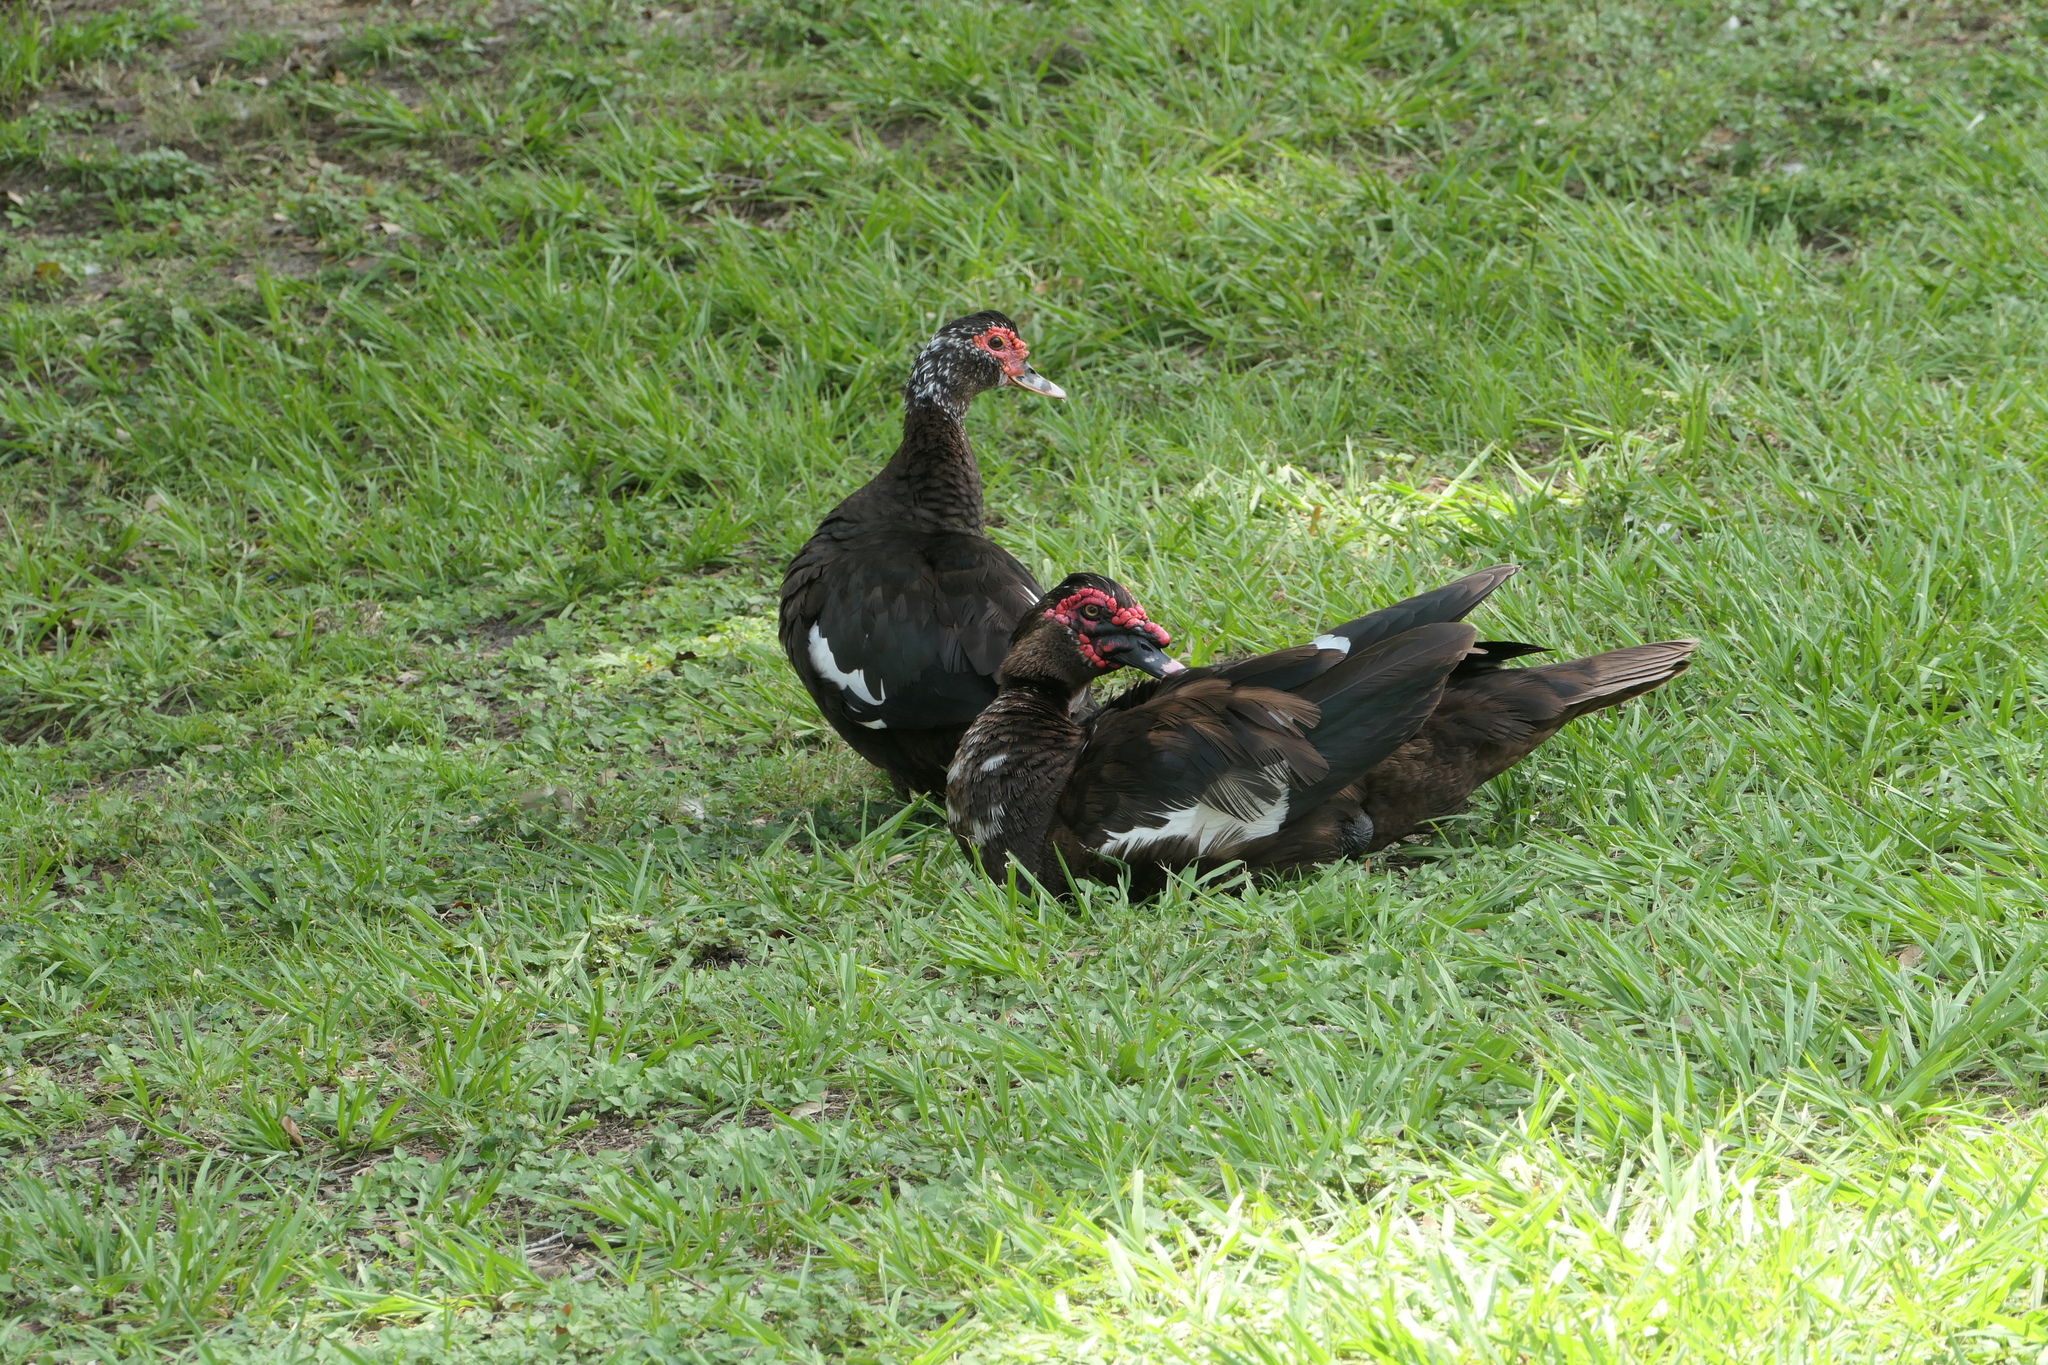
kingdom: Animalia
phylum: Chordata
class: Aves
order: Anseriformes
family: Anatidae
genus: Cairina
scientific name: Cairina moschata
